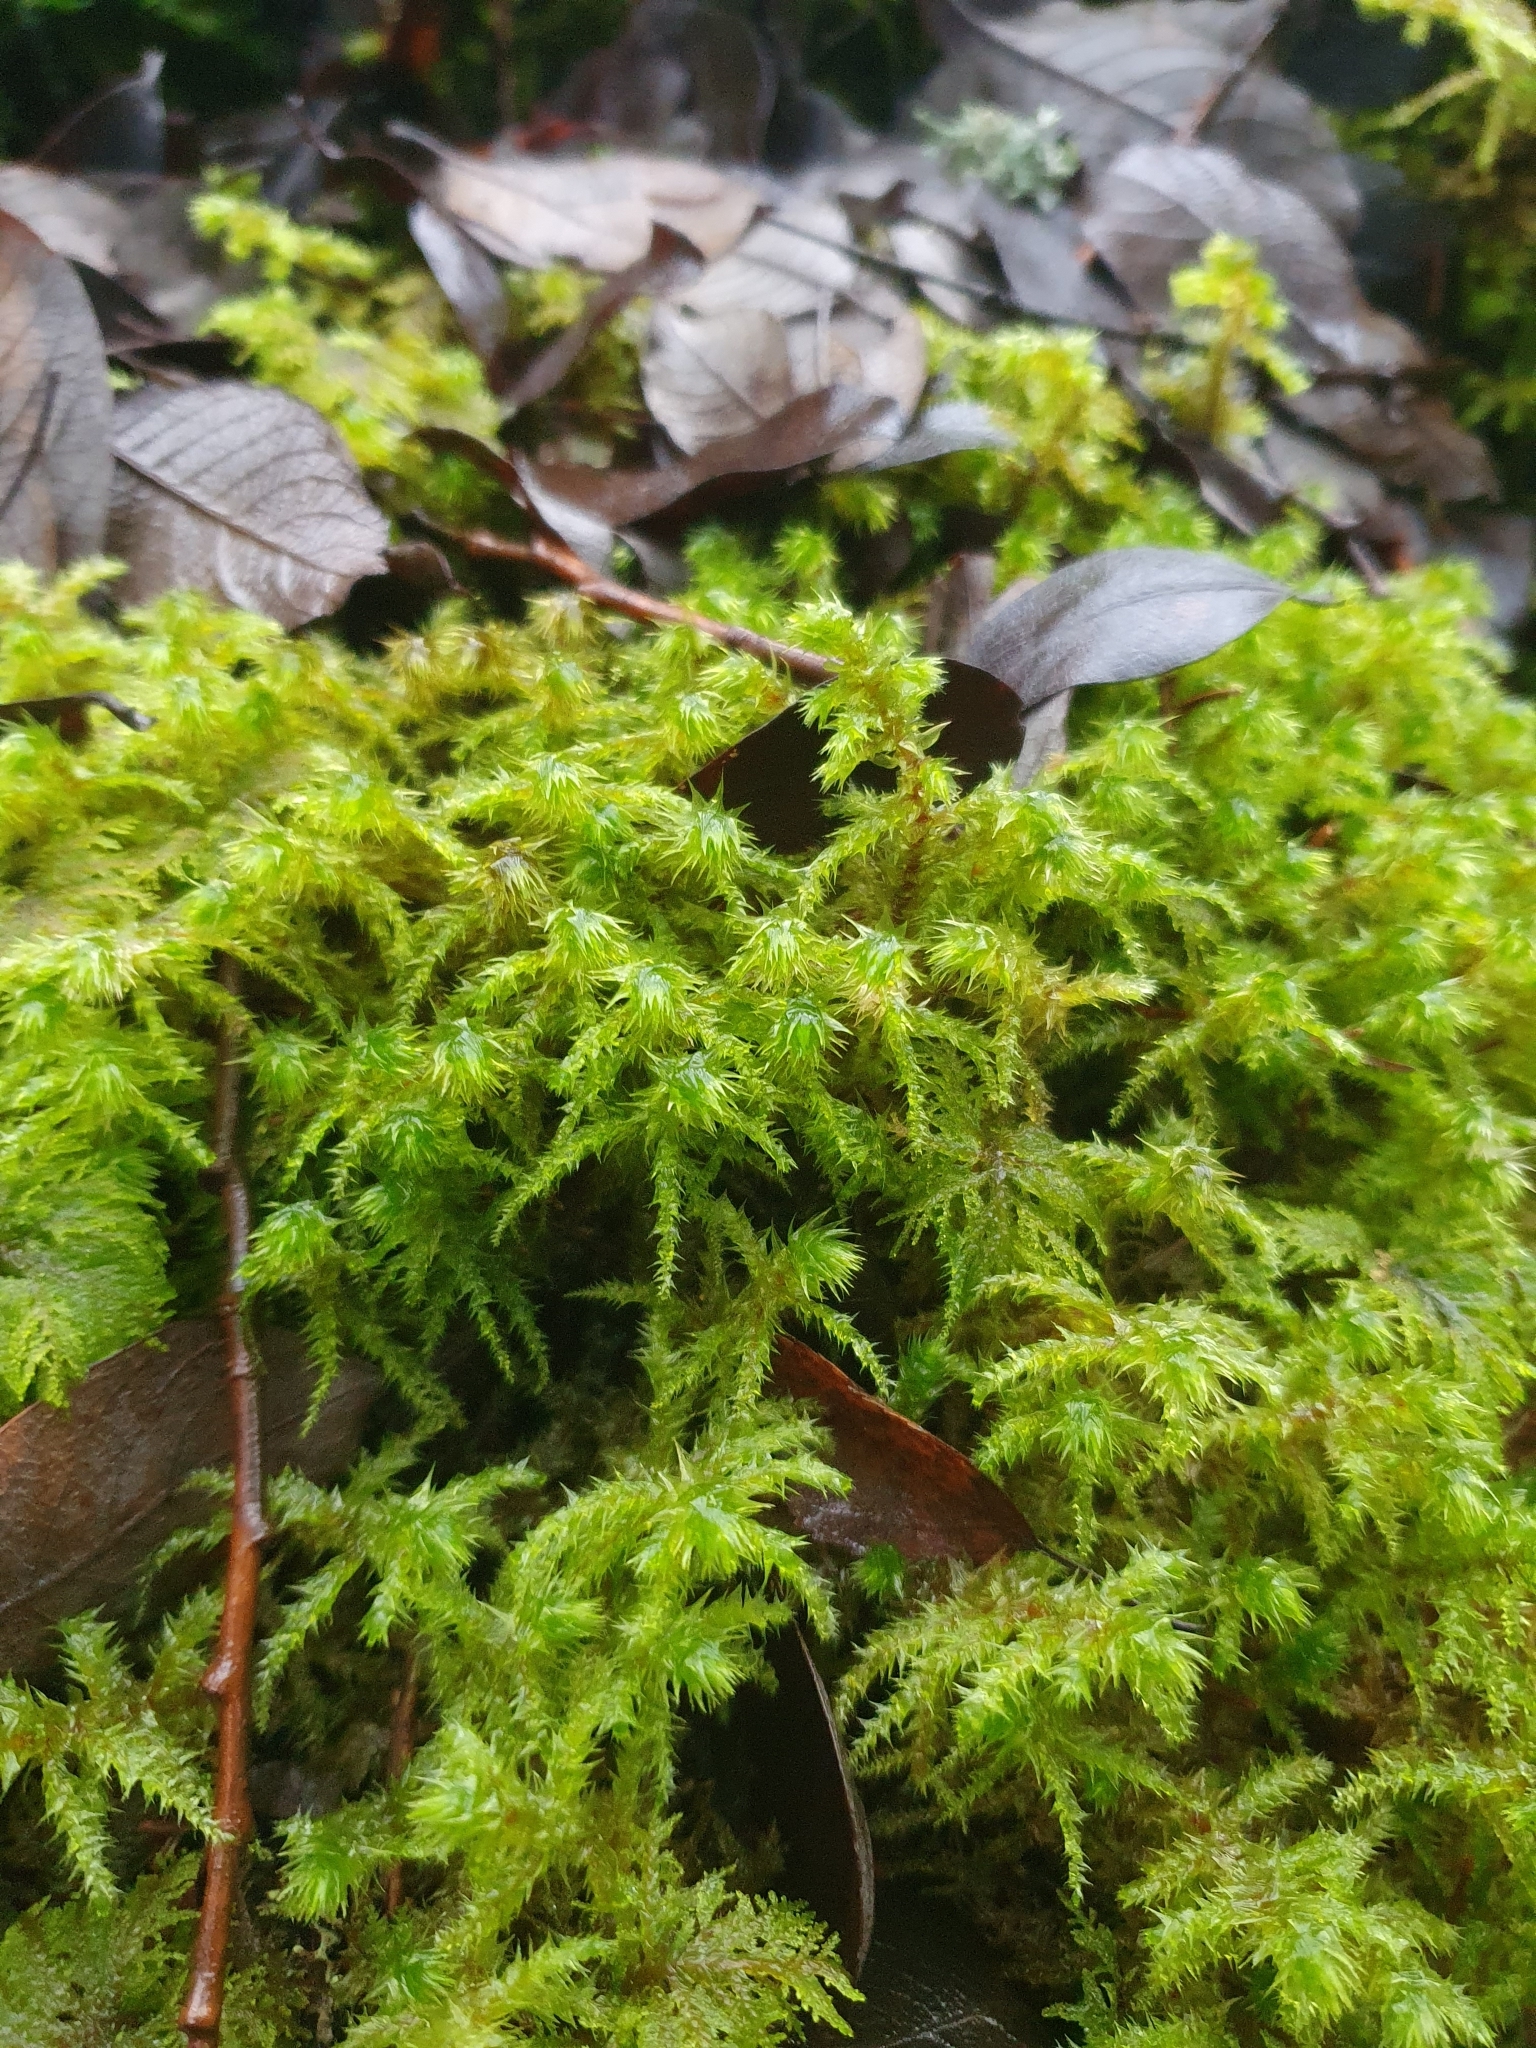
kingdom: Plantae
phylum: Bryophyta
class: Bryopsida
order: Hypnales
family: Hylocomiaceae
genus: Hylocomiadelphus
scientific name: Hylocomiadelphus triquetrus
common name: Rough goose neck moss
